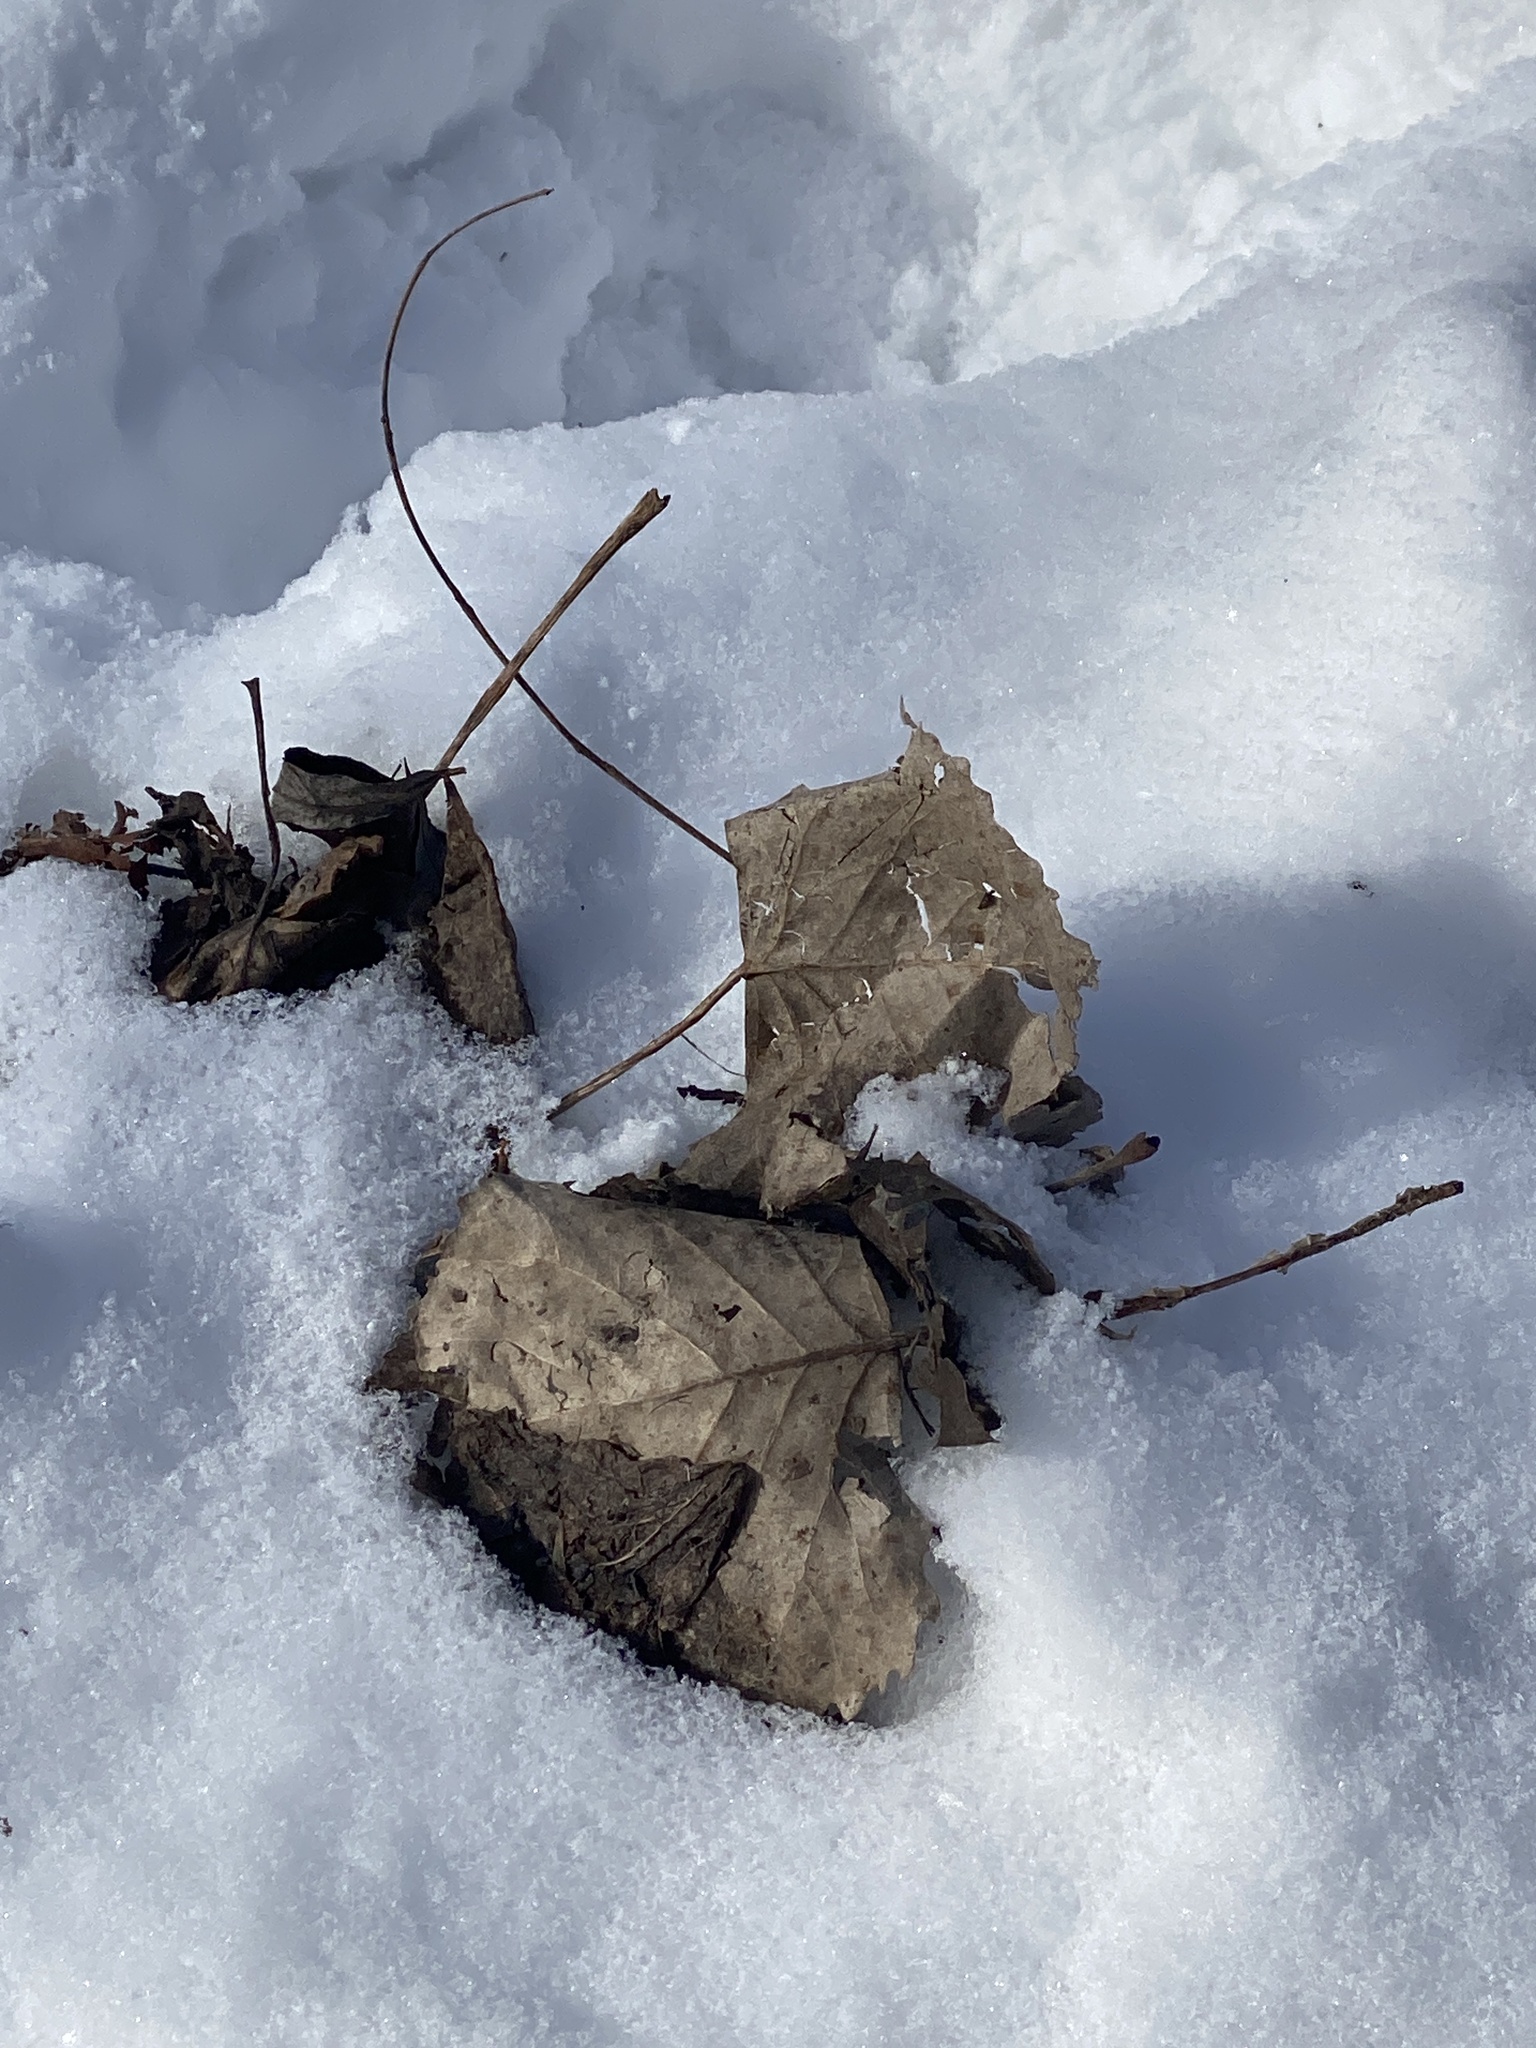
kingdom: Plantae
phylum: Tracheophyta
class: Magnoliopsida
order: Malpighiales
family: Salicaceae
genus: Populus
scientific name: Populus deltoides
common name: Eastern cottonwood
